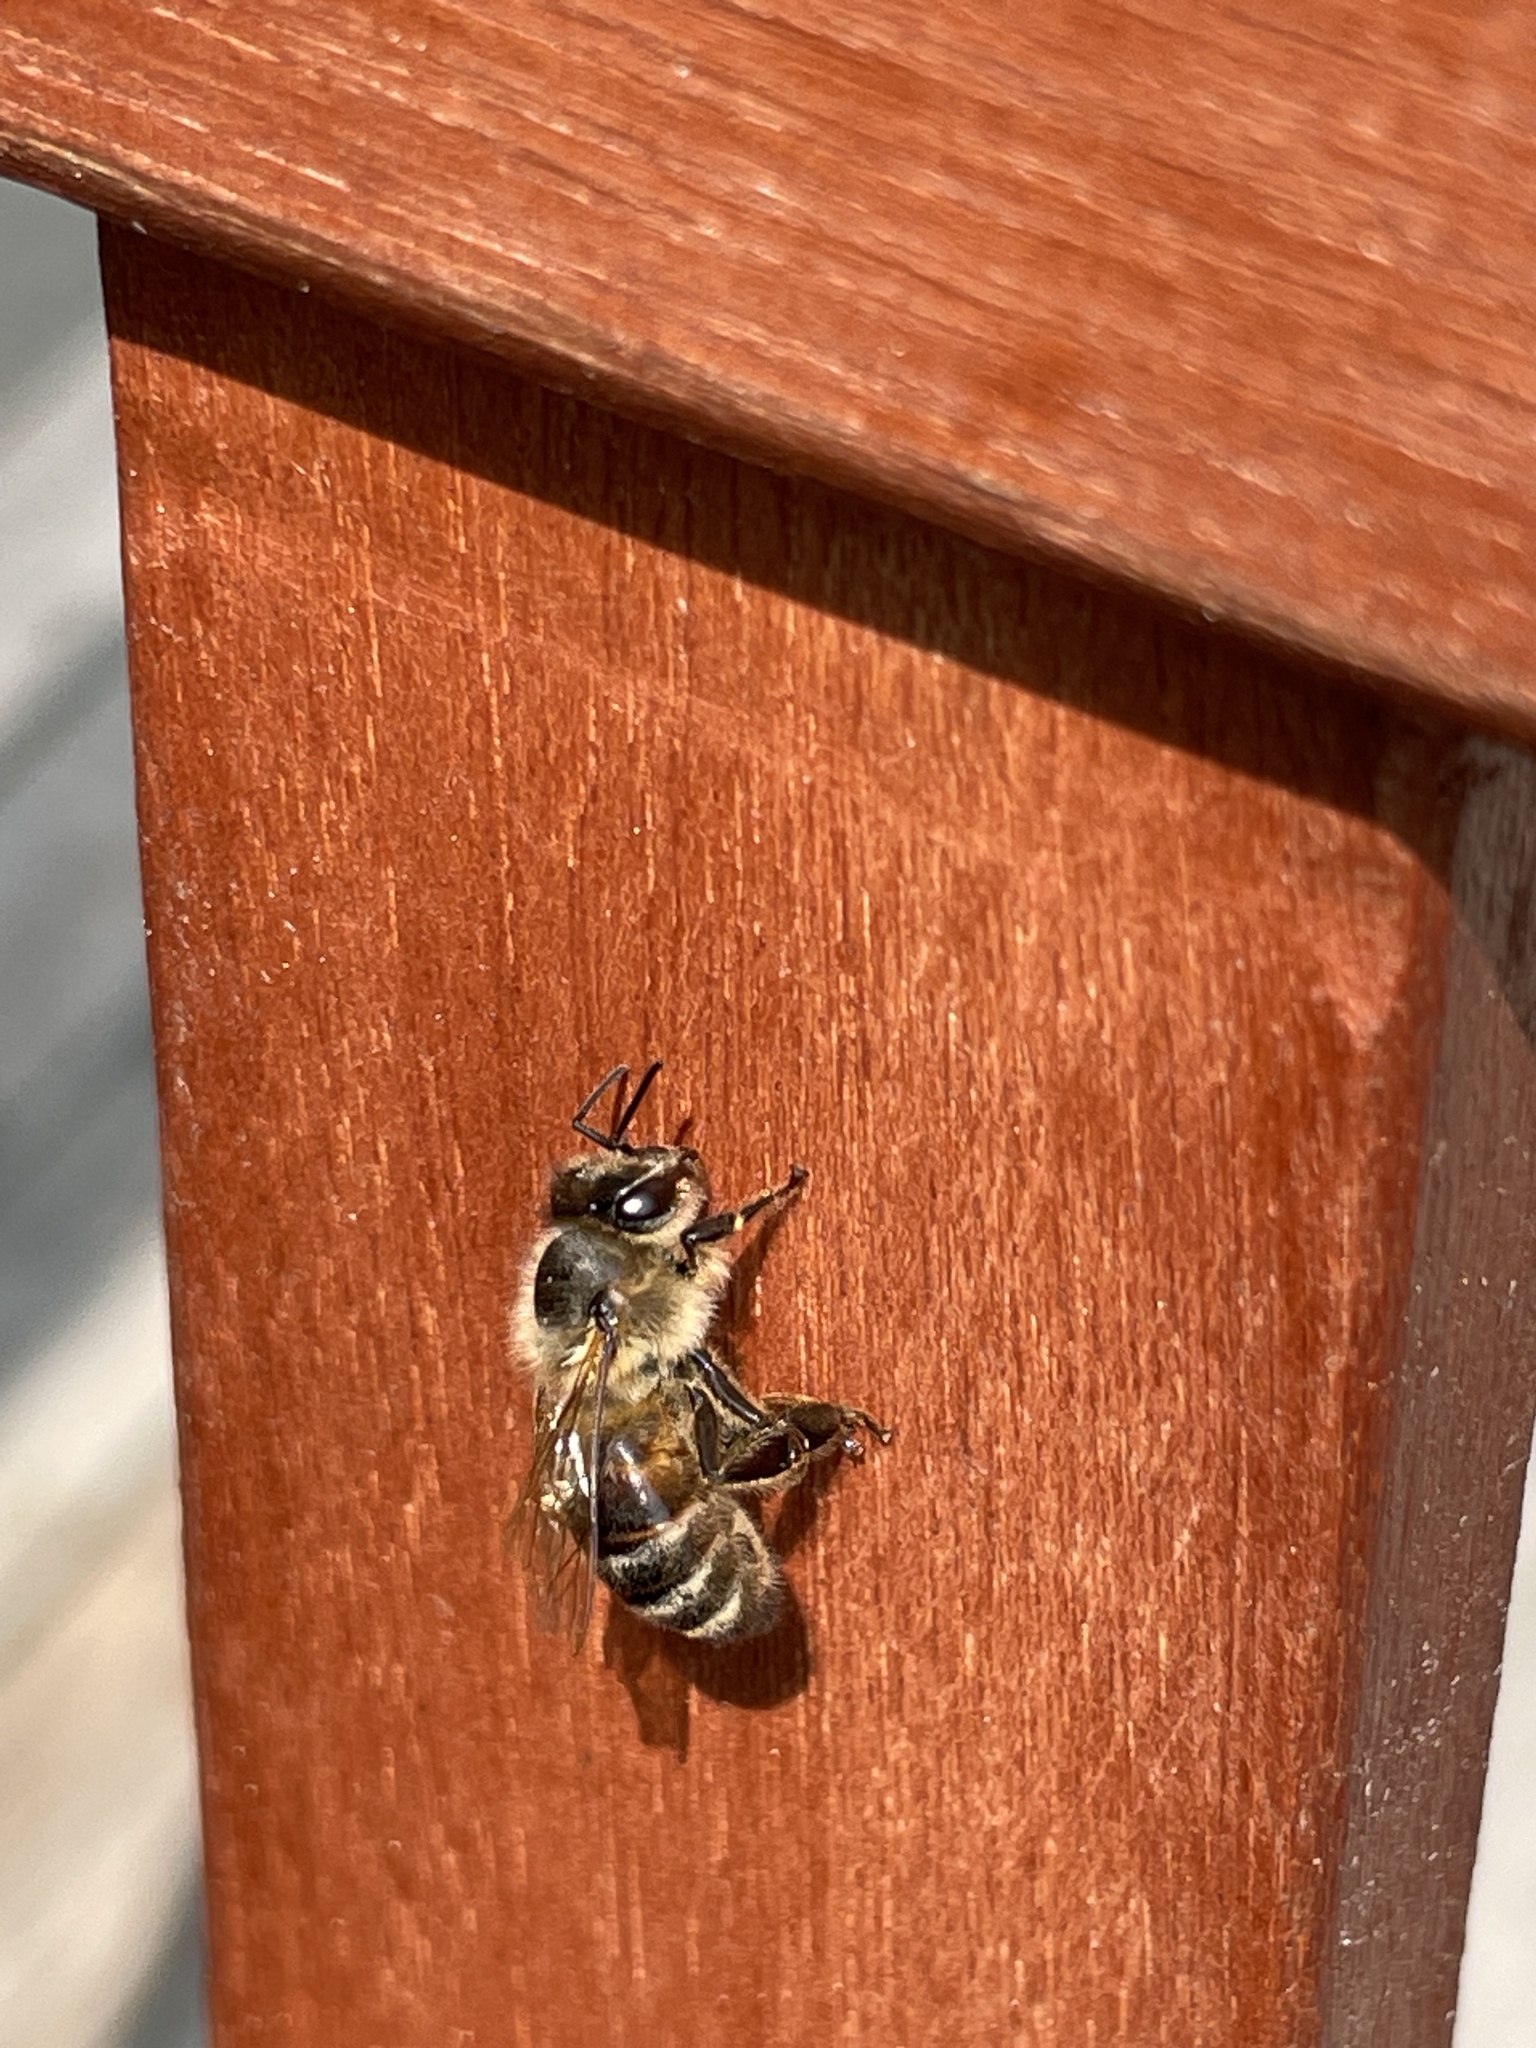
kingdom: Animalia
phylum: Arthropoda
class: Insecta
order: Hymenoptera
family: Apidae
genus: Apis
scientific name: Apis mellifera
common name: Honey bee
